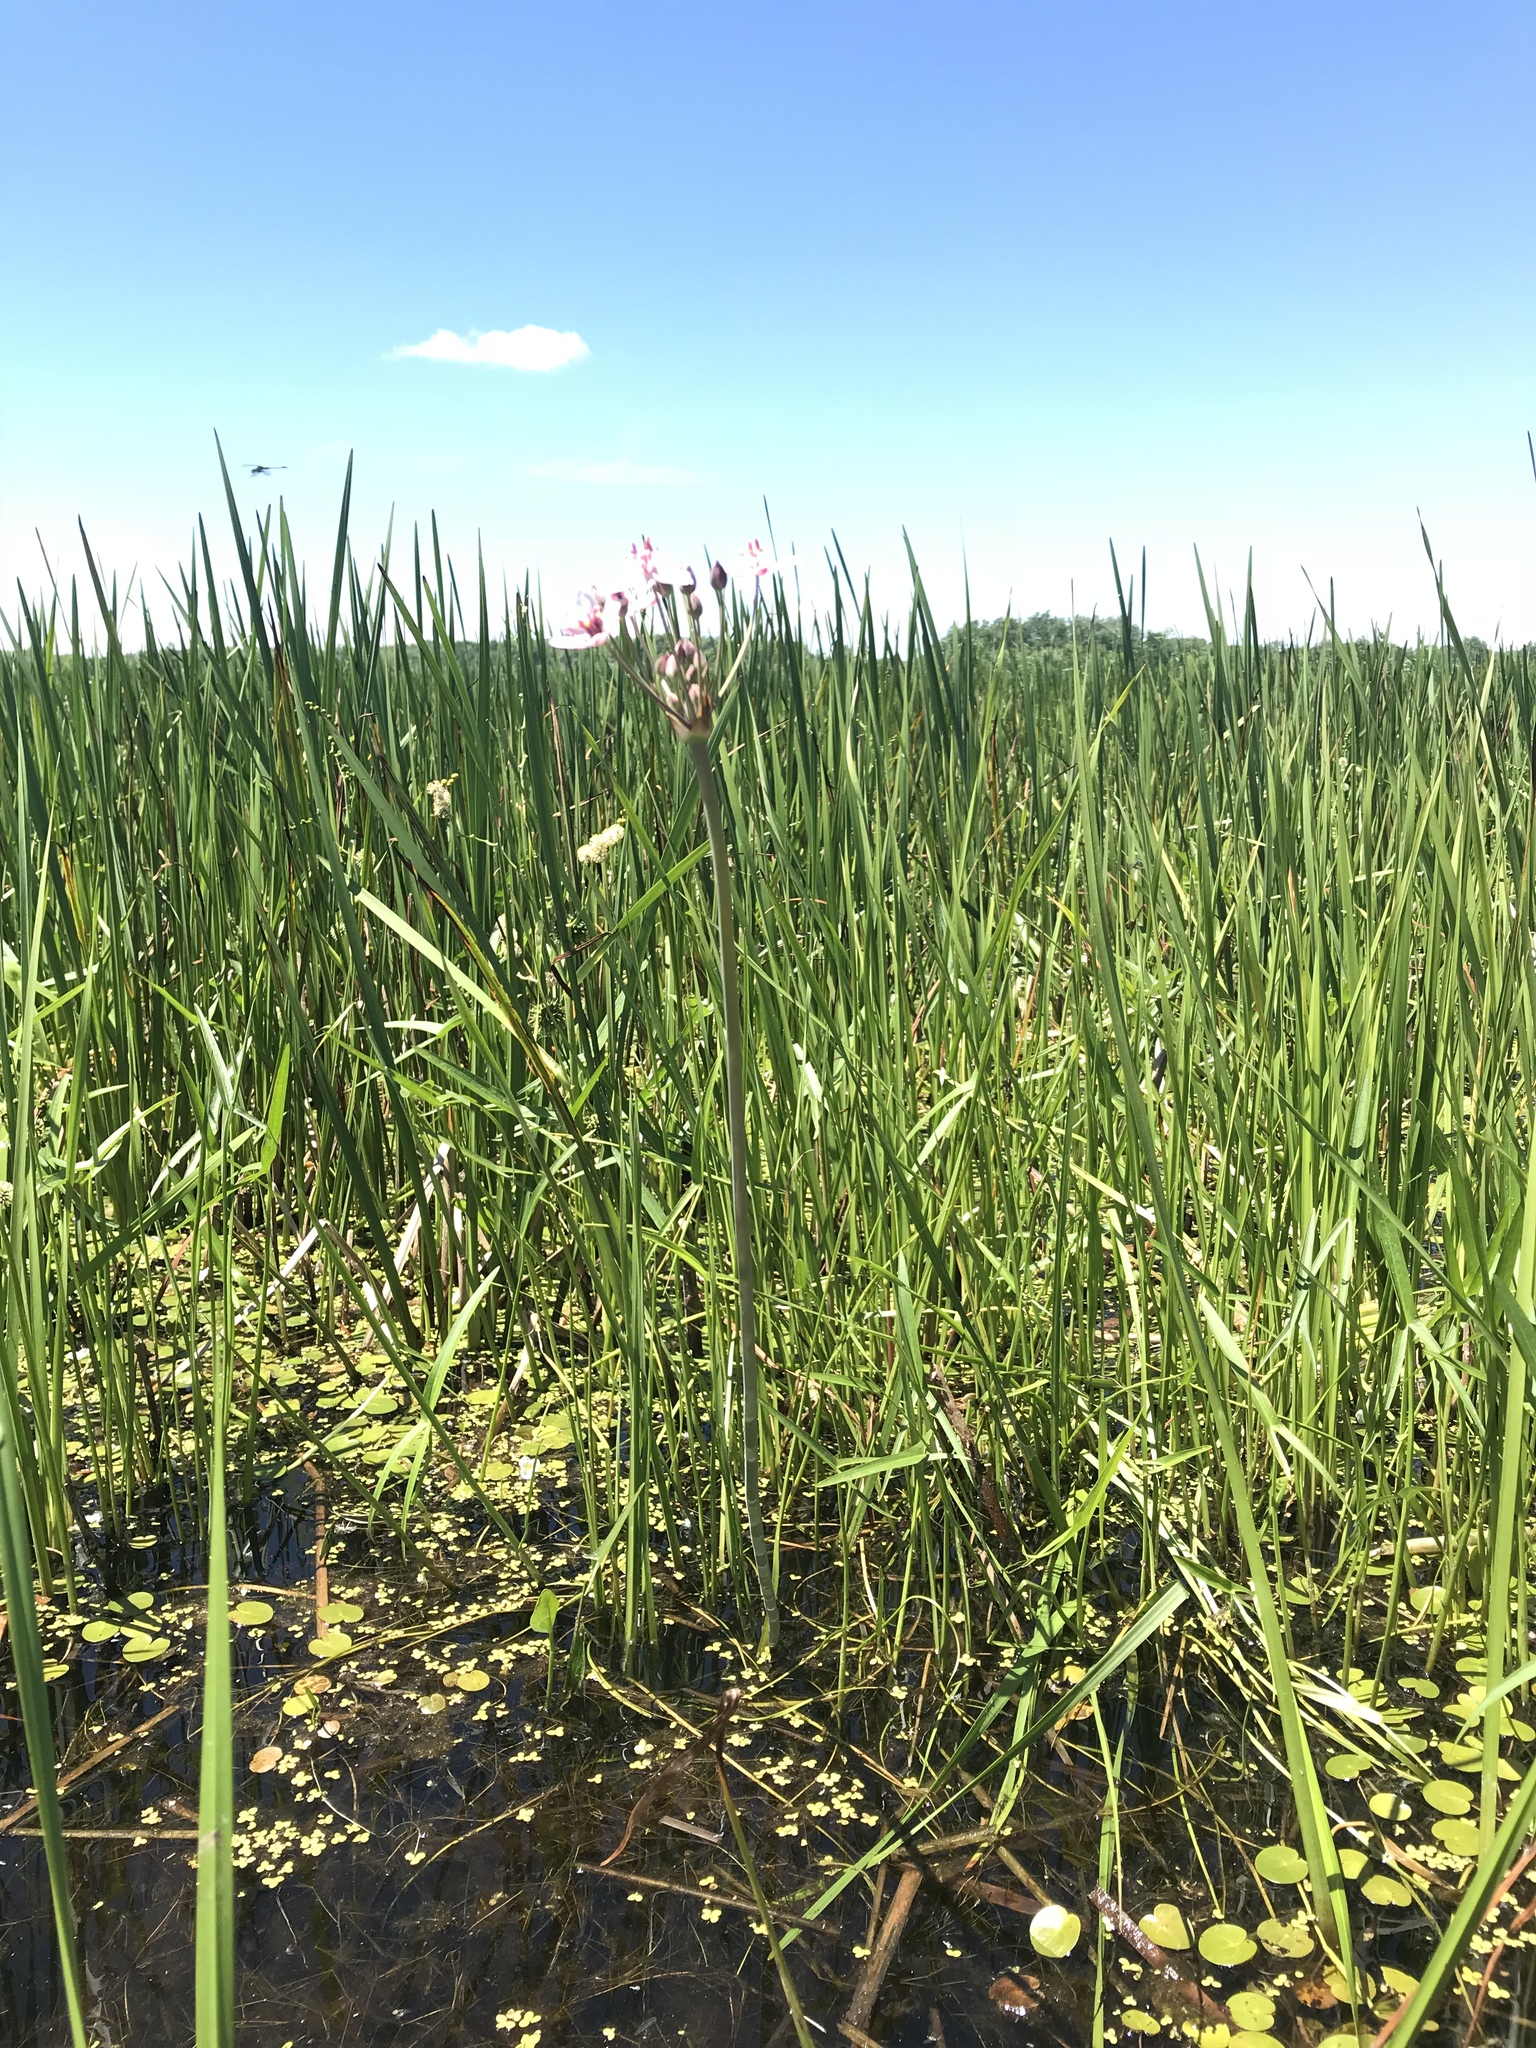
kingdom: Plantae
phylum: Tracheophyta
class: Liliopsida
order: Alismatales
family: Butomaceae
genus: Butomus
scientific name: Butomus umbellatus
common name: Flowering-rush
